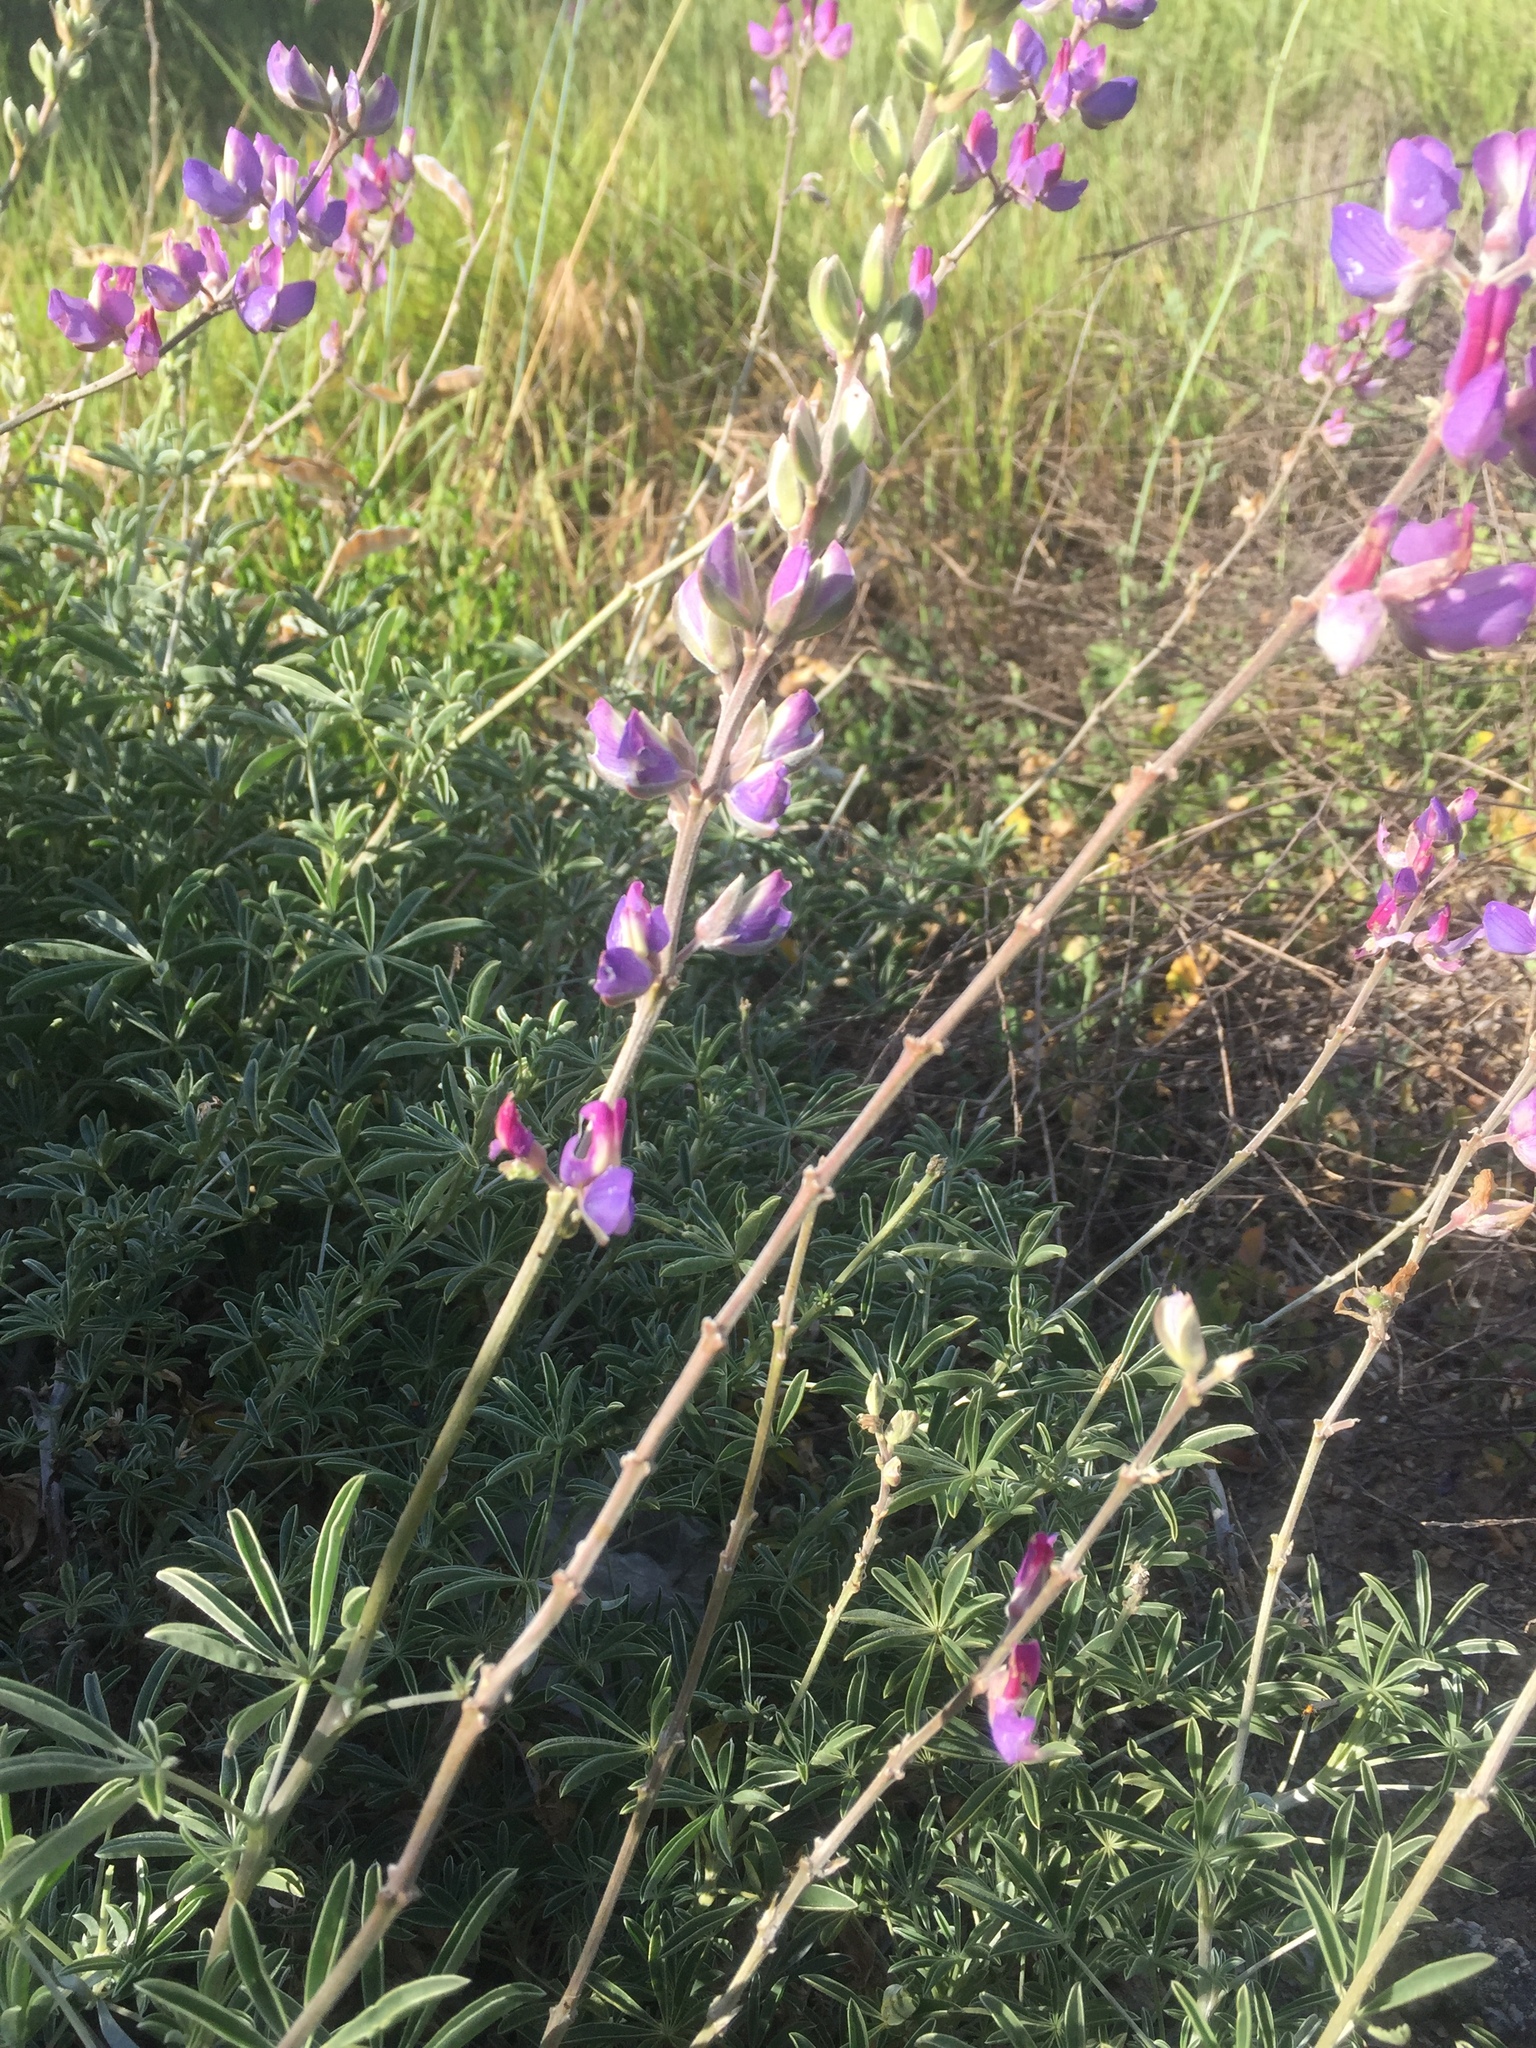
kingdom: Plantae
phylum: Tracheophyta
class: Magnoliopsida
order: Fabales
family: Fabaceae
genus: Lupinus
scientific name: Lupinus longifolius
